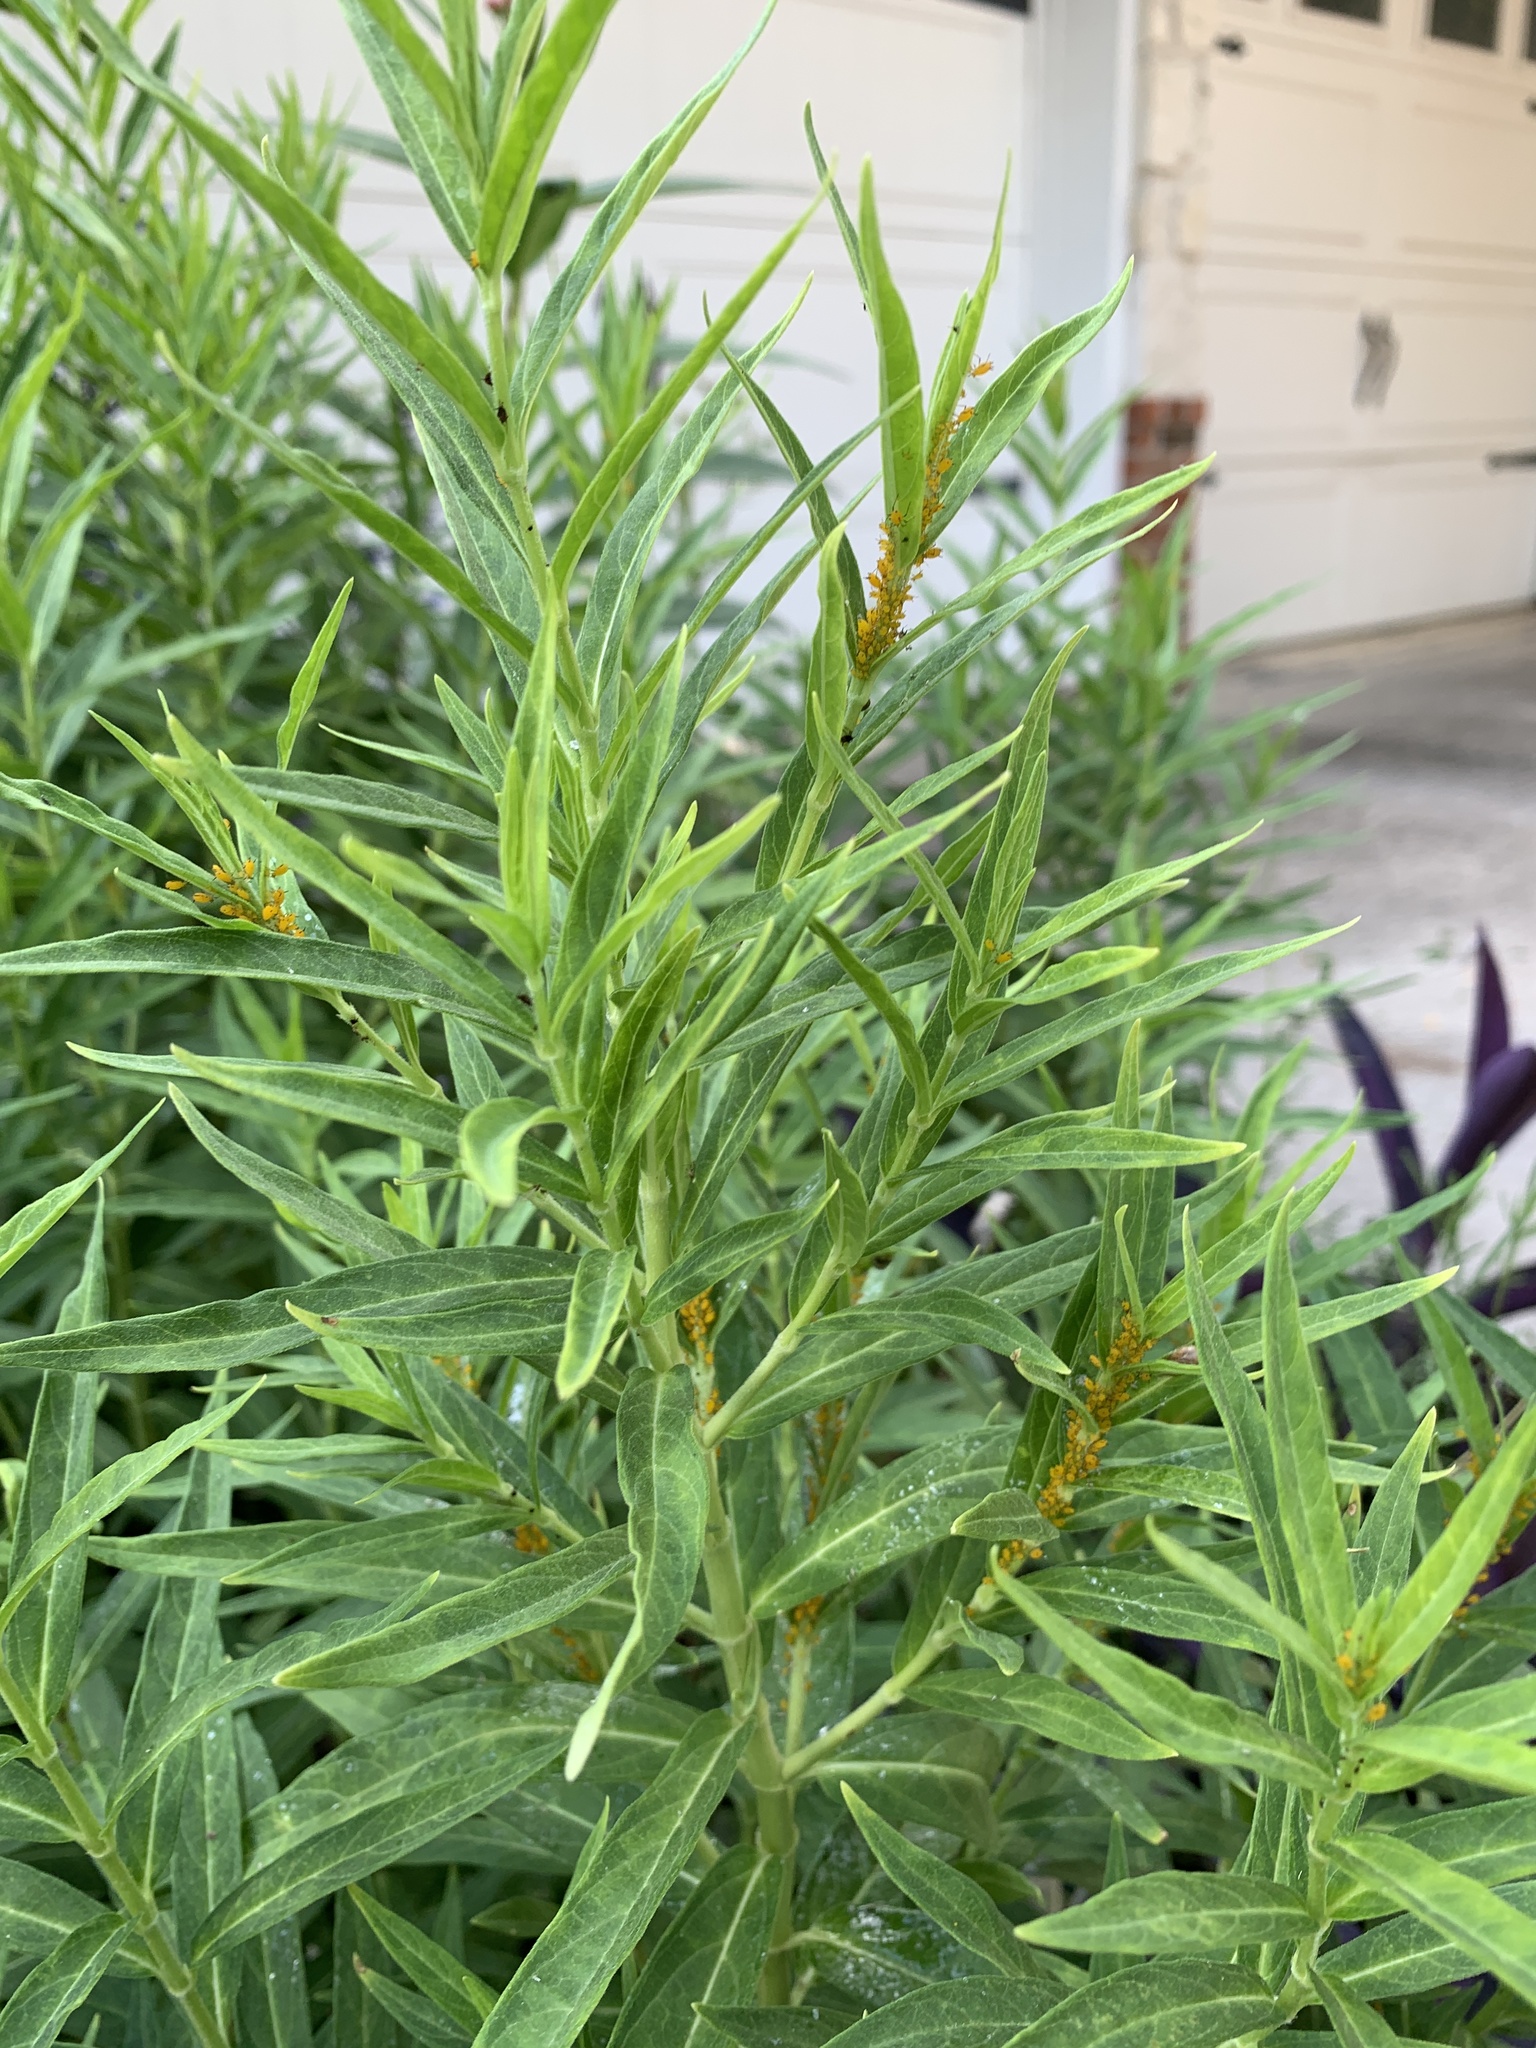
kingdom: Animalia
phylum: Arthropoda
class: Insecta
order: Hemiptera
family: Aphididae
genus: Aphis
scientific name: Aphis nerii
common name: Oleander aphid
